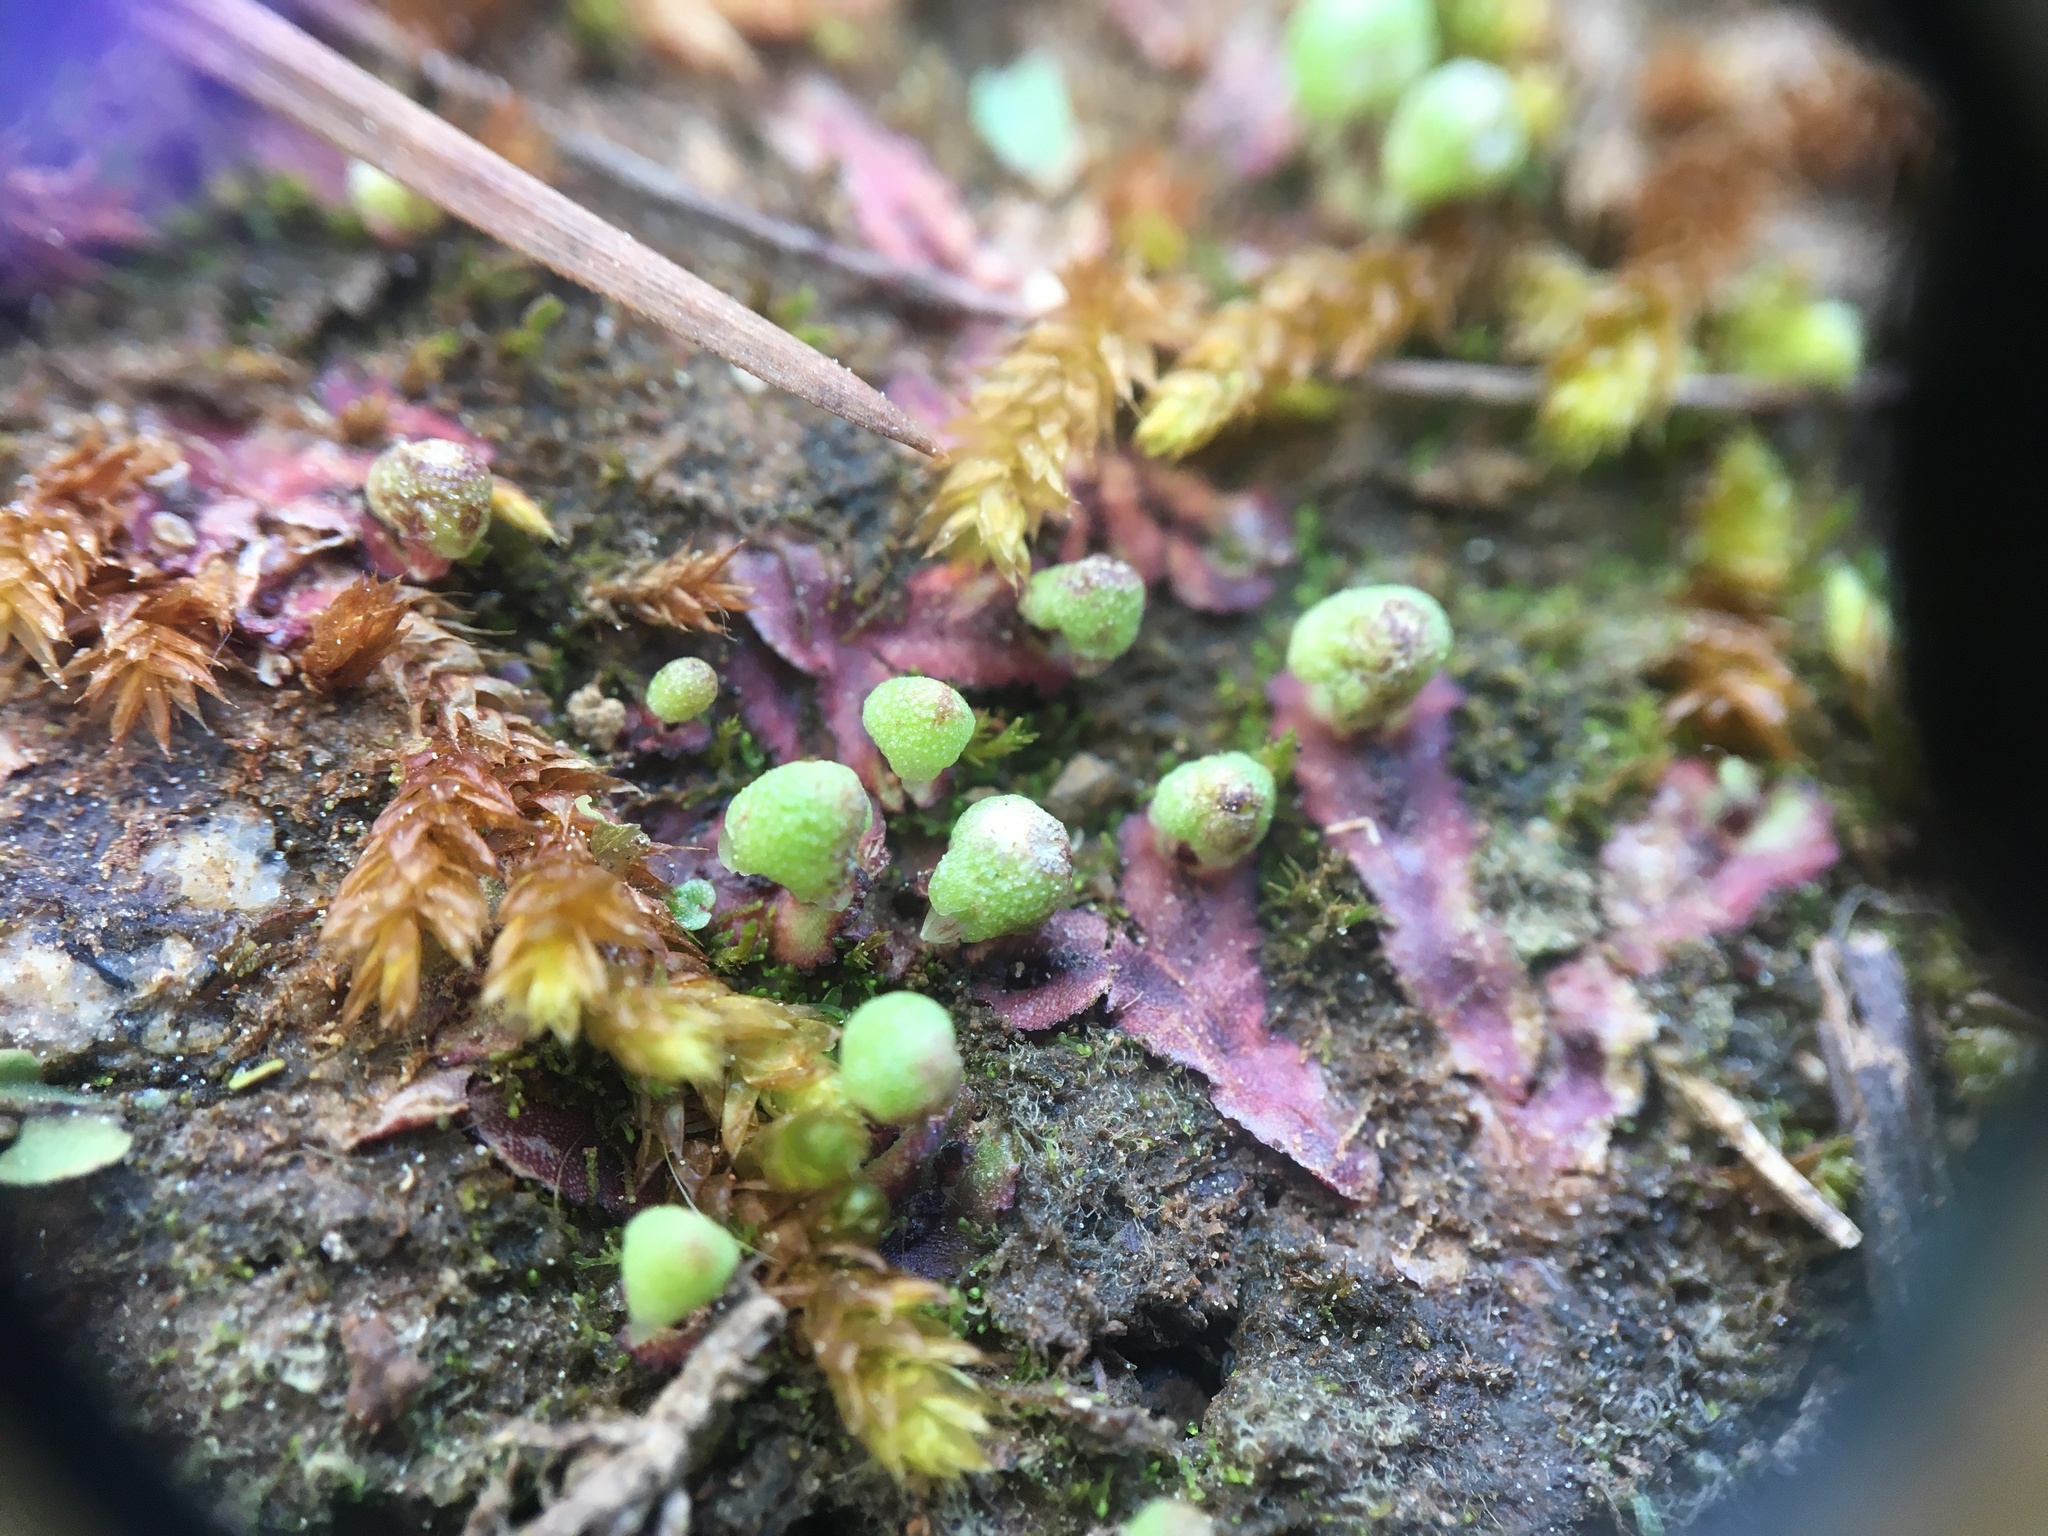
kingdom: Plantae
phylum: Marchantiophyta
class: Marchantiopsida
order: Marchantiales
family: Aytoniaceae
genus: Asterella
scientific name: Asterella tenella
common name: Delicate starwort
